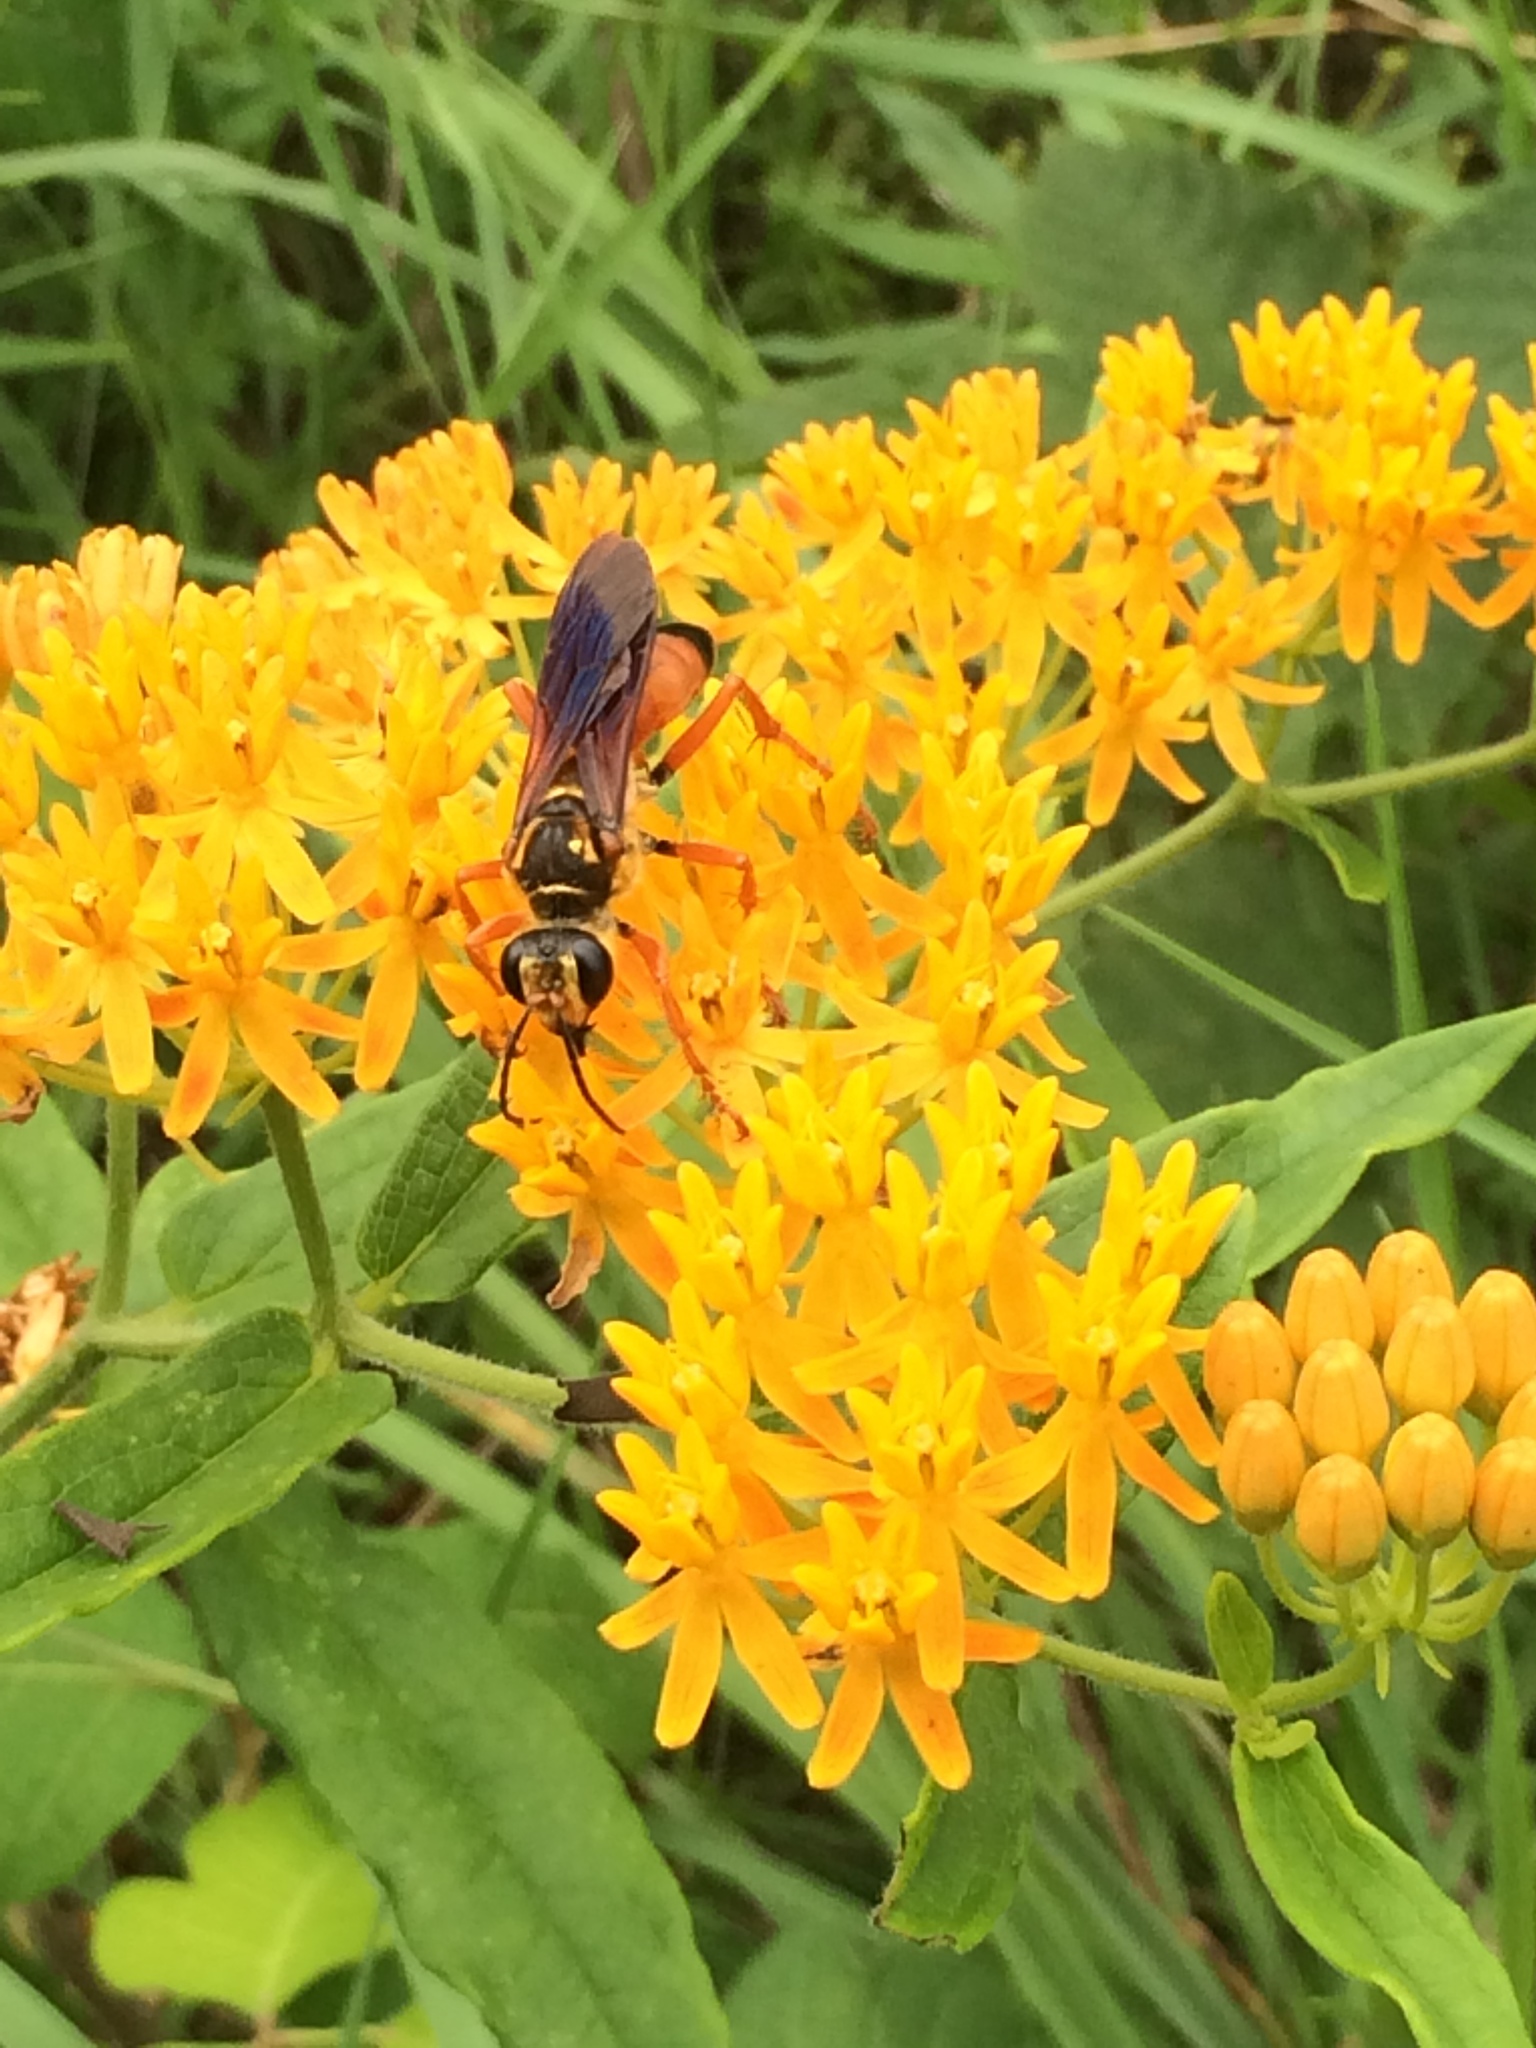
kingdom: Animalia
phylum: Arthropoda
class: Insecta
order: Hymenoptera
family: Sphecidae
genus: Sphex
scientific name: Sphex ichneumoneus
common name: Great golden digger wasp
